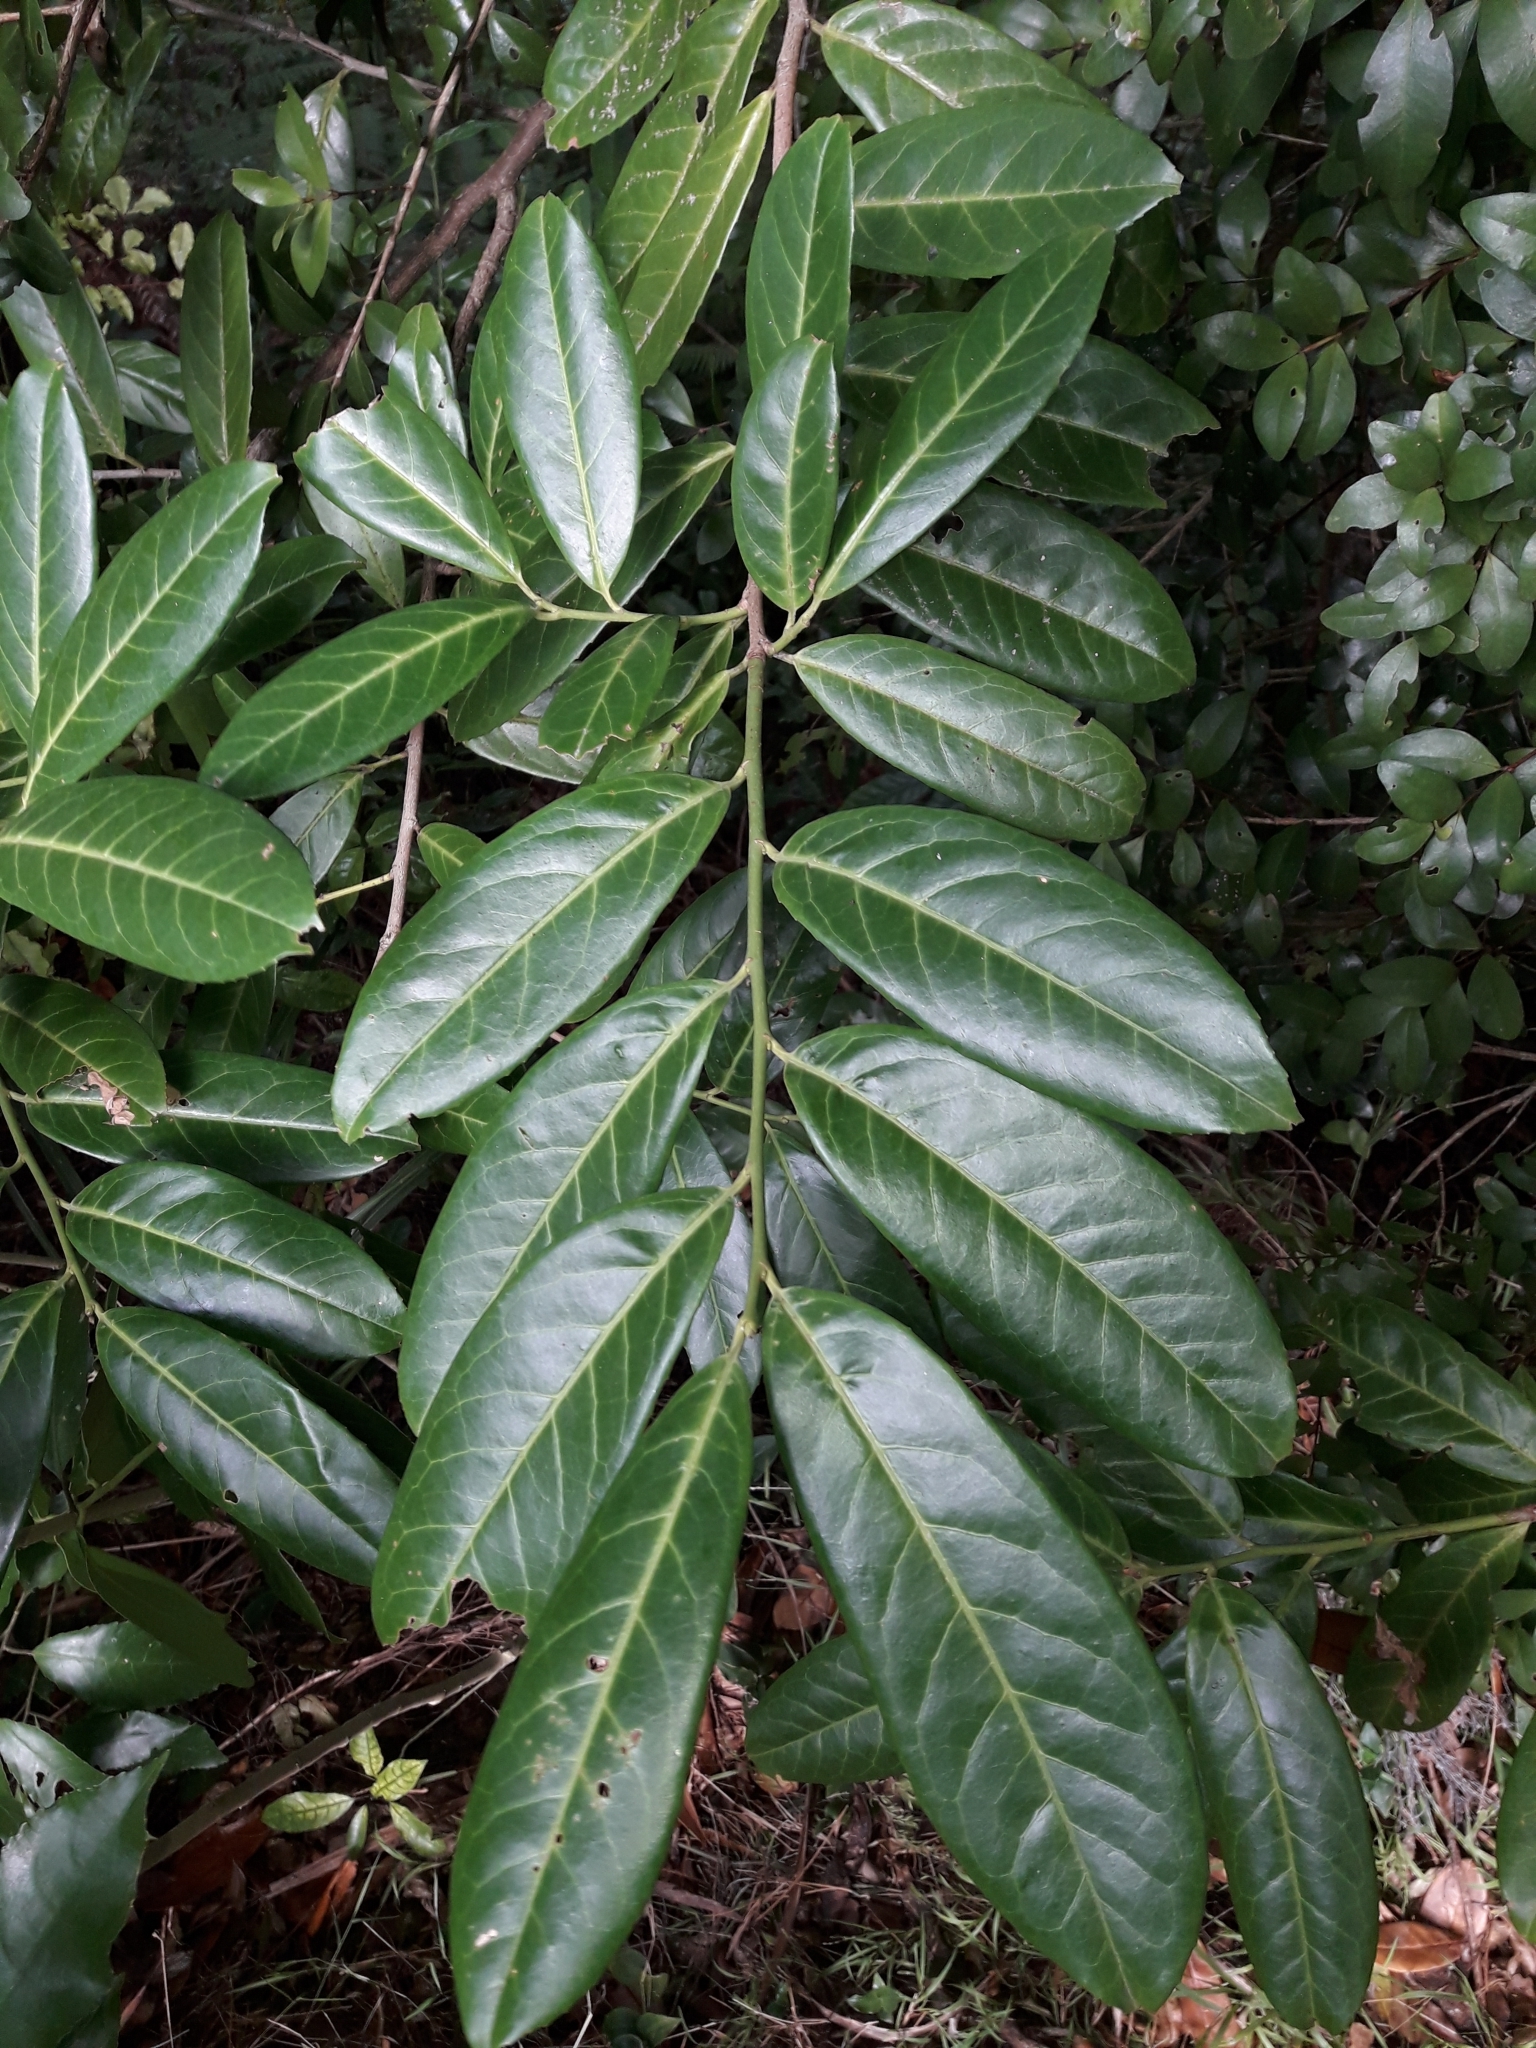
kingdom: Plantae
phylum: Tracheophyta
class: Magnoliopsida
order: Rosales
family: Rosaceae
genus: Prunus
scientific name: Prunus laurocerasus
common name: Cherry laurel
